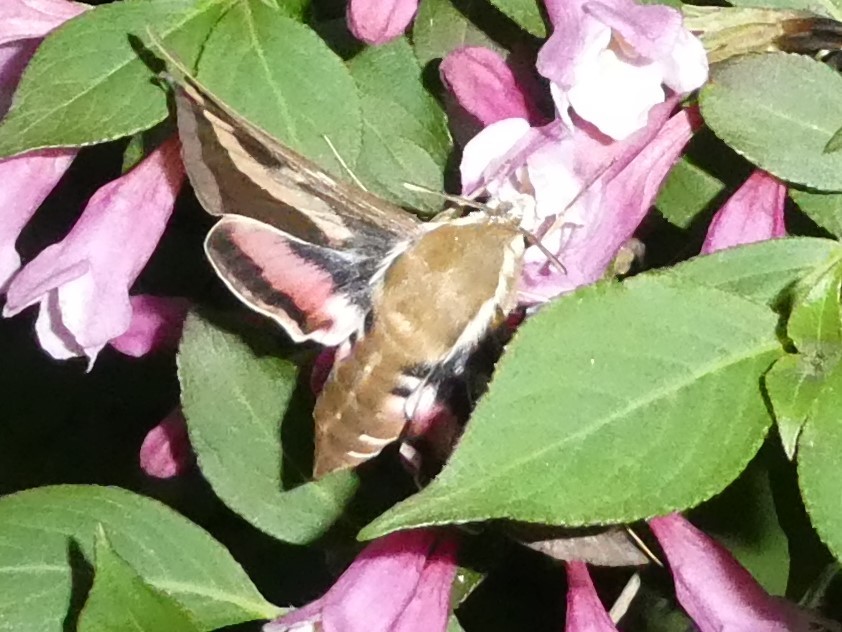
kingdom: Animalia
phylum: Arthropoda
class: Insecta
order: Lepidoptera
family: Sphingidae
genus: Hyles
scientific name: Hyles gallii
